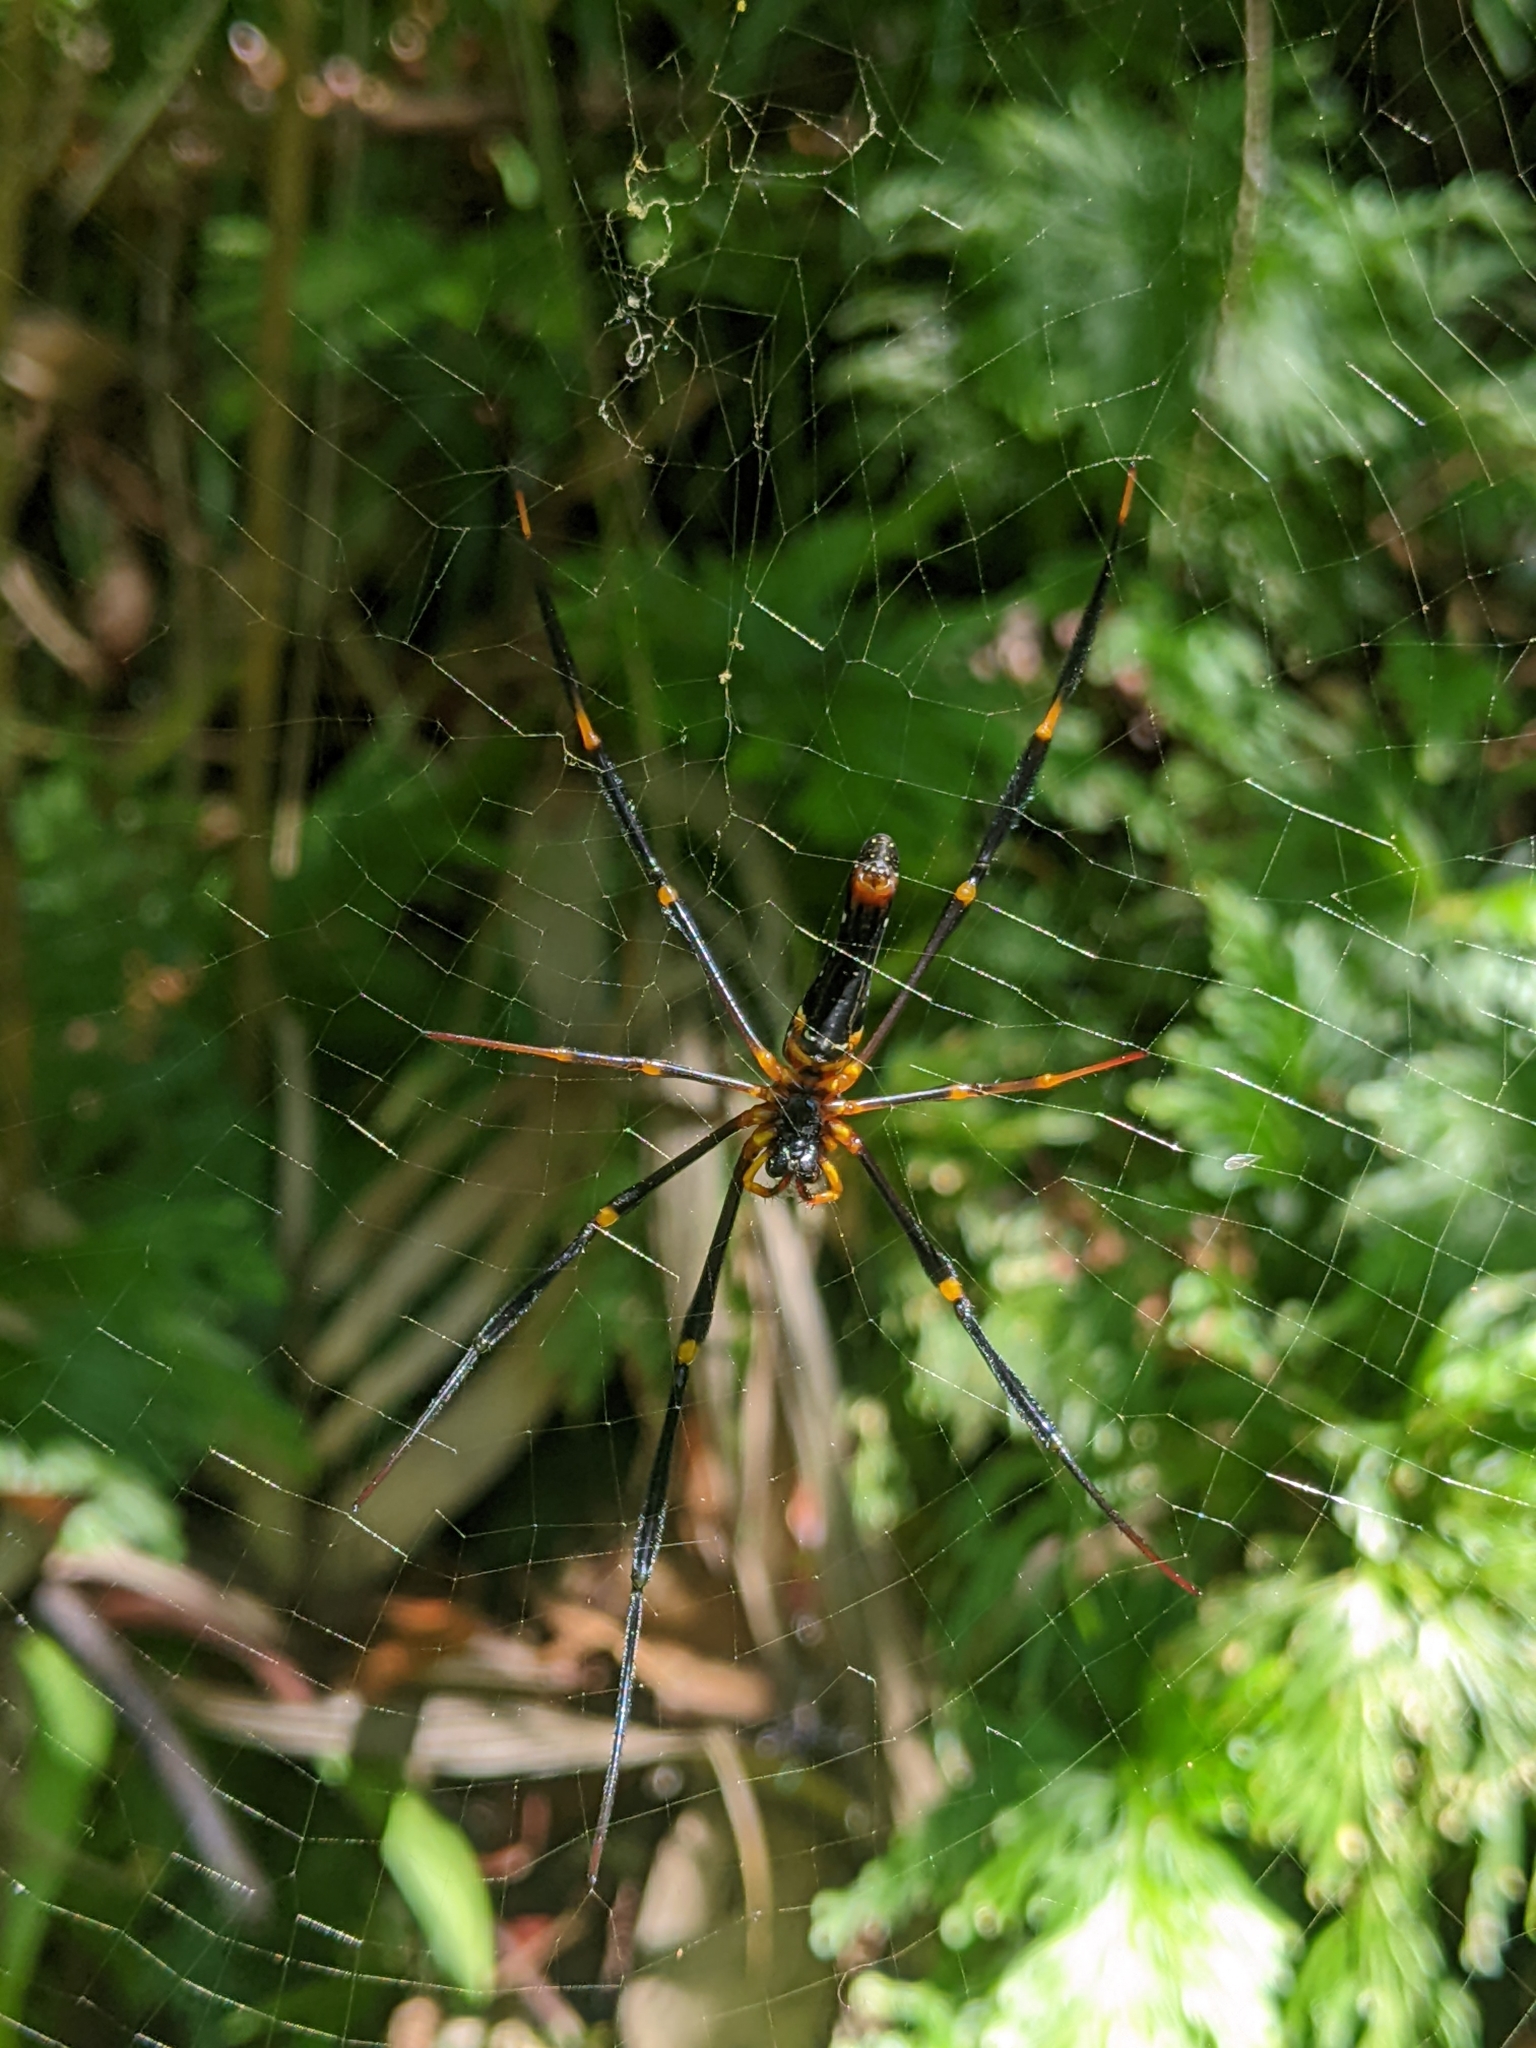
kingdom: Animalia
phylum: Arthropoda
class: Arachnida
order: Araneae
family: Araneidae
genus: Nephila
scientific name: Nephila pilipes
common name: Giant golden orb weaver
